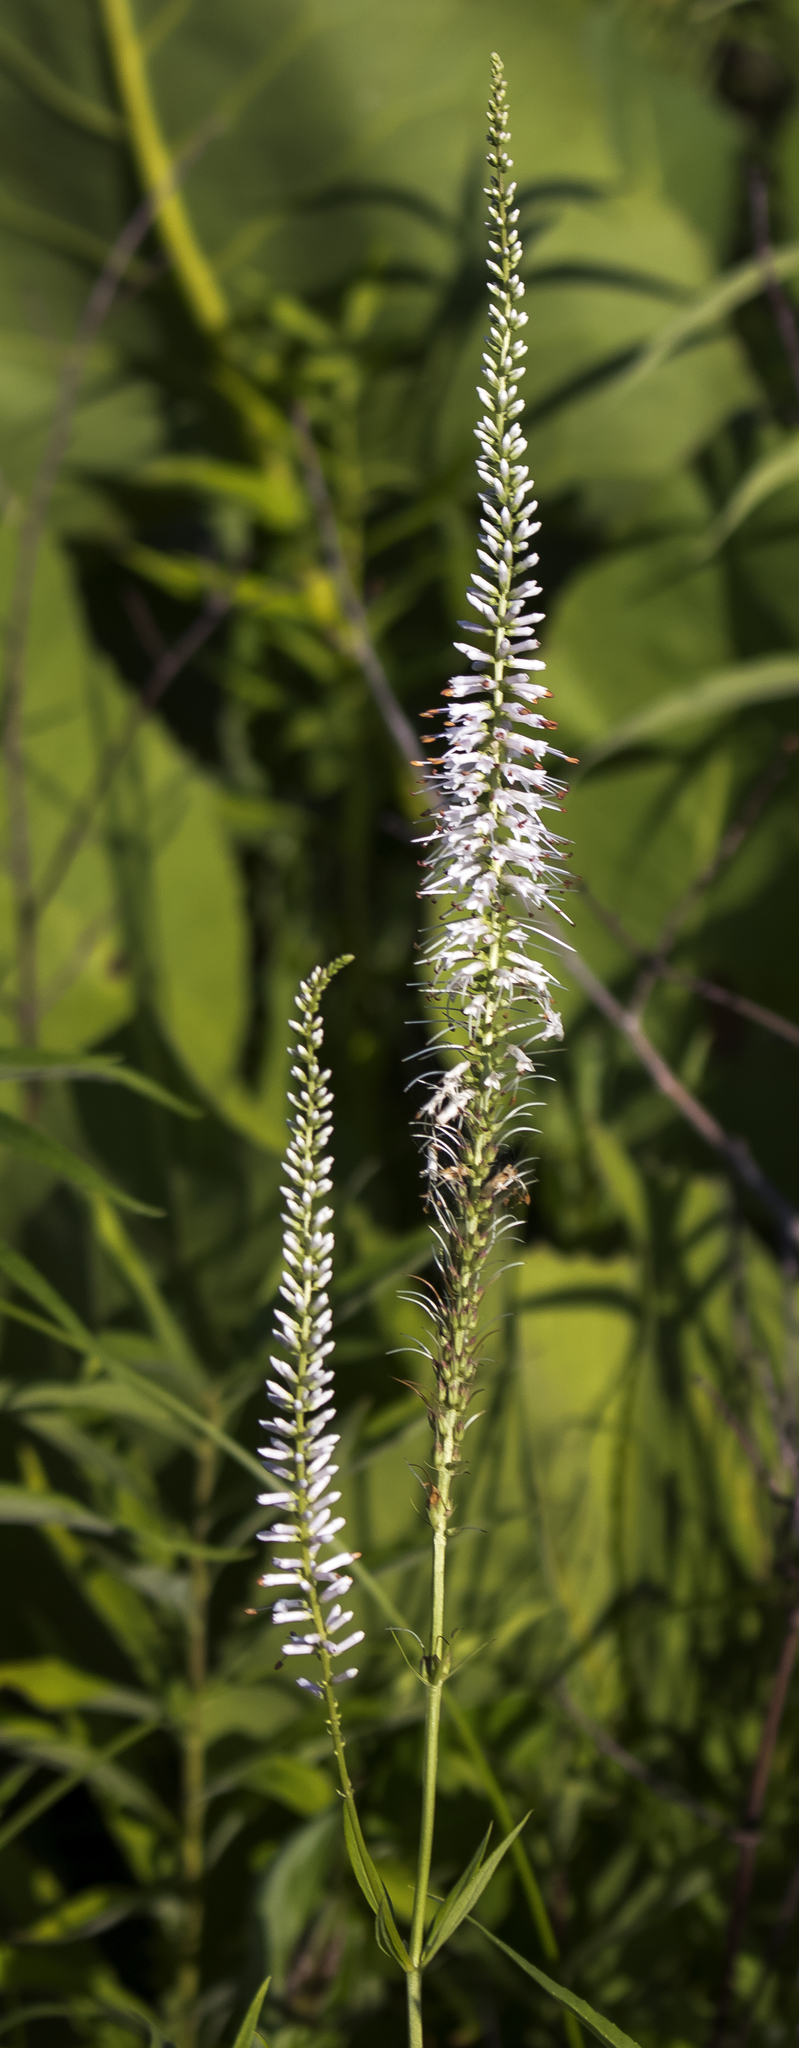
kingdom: Plantae
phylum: Tracheophyta
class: Magnoliopsida
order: Lamiales
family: Plantaginaceae
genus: Veronicastrum
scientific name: Veronicastrum virginicum
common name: Blackroot
